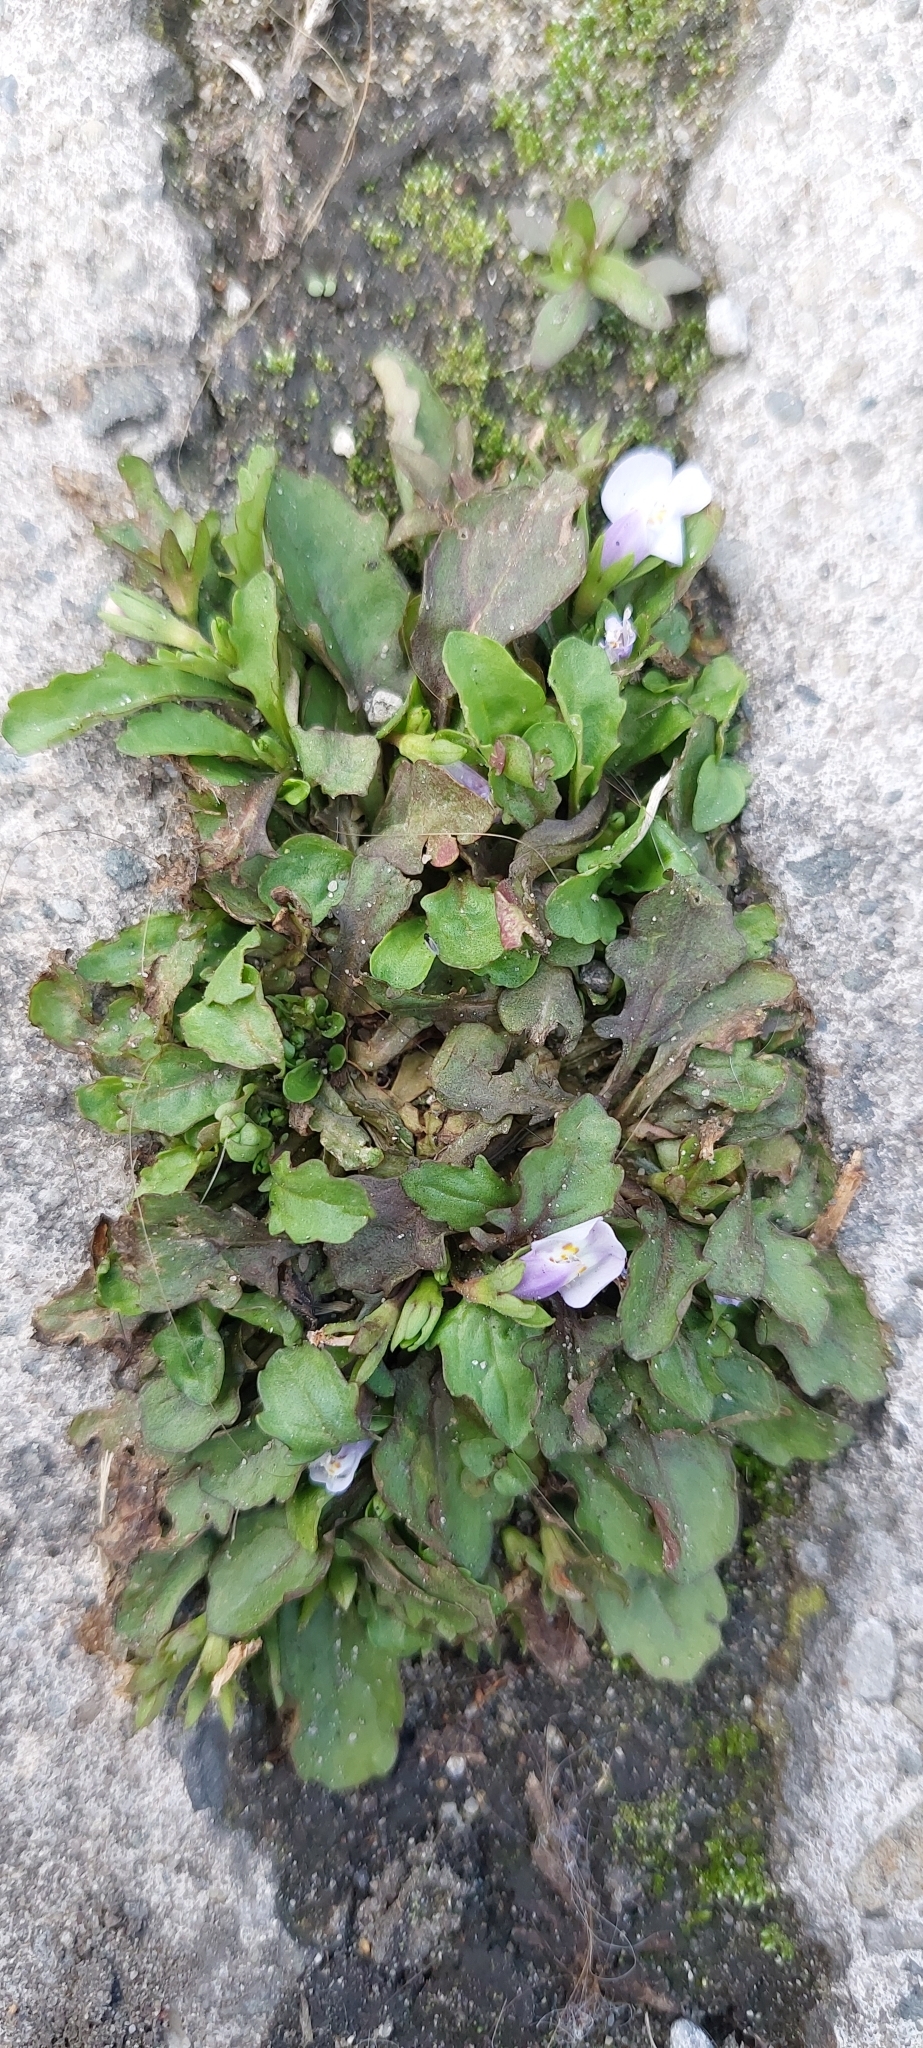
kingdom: Plantae
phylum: Tracheophyta
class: Magnoliopsida
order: Lamiales
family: Mazaceae
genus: Mazus
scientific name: Mazus pumilus
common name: Japanese mazus
